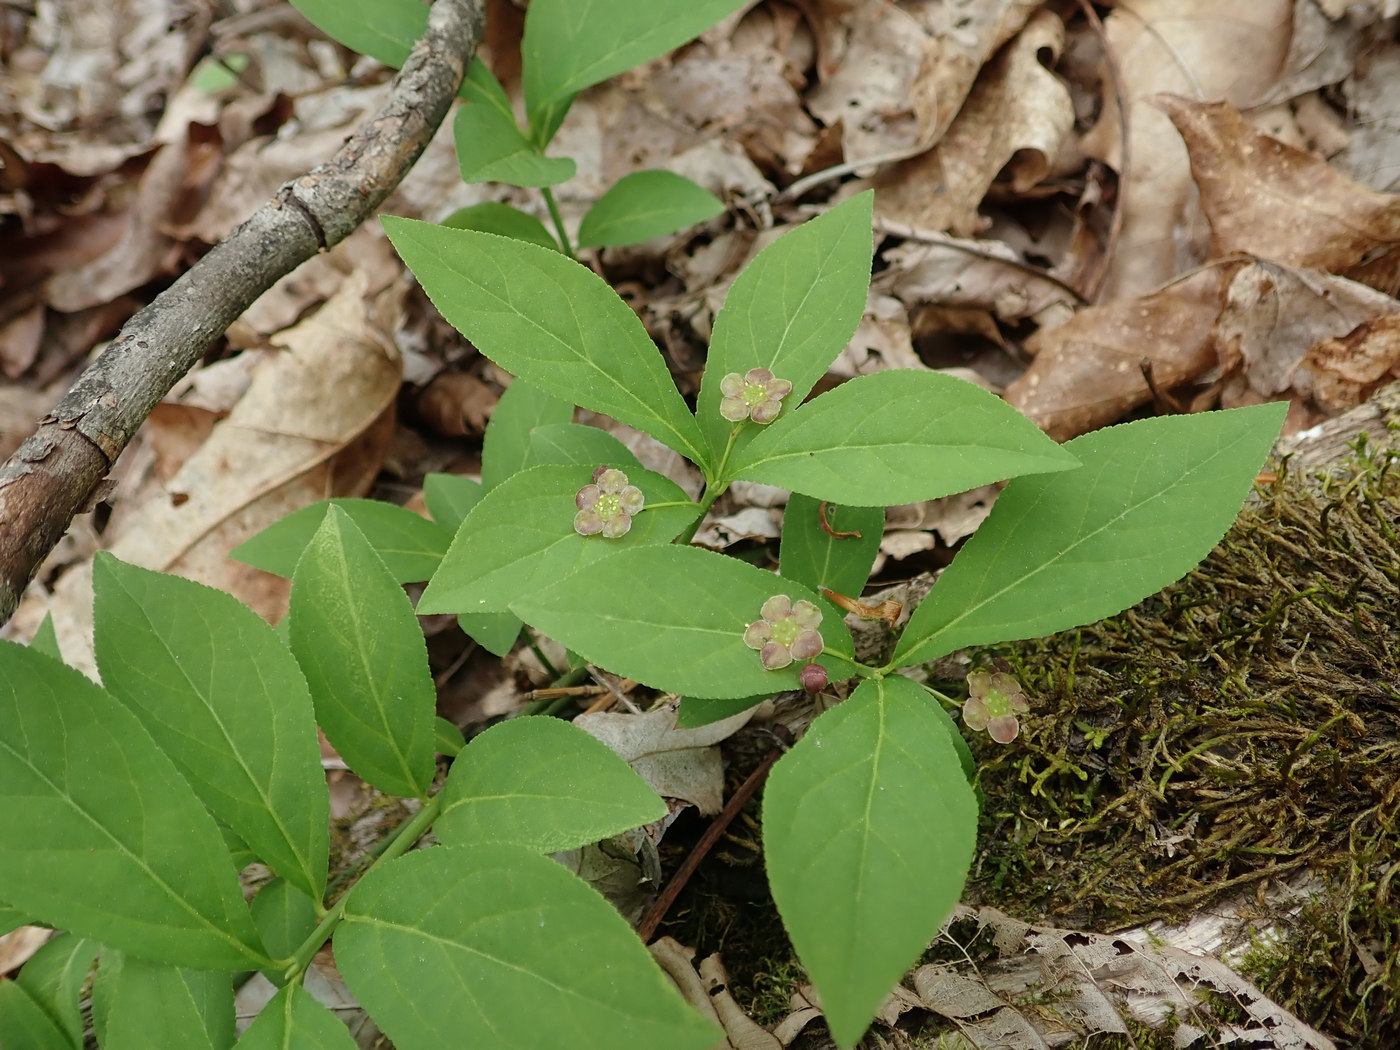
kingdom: Plantae
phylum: Tracheophyta
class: Magnoliopsida
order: Celastrales
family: Celastraceae
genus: Euonymus
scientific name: Euonymus obovatus
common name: Running strawberry-bush
